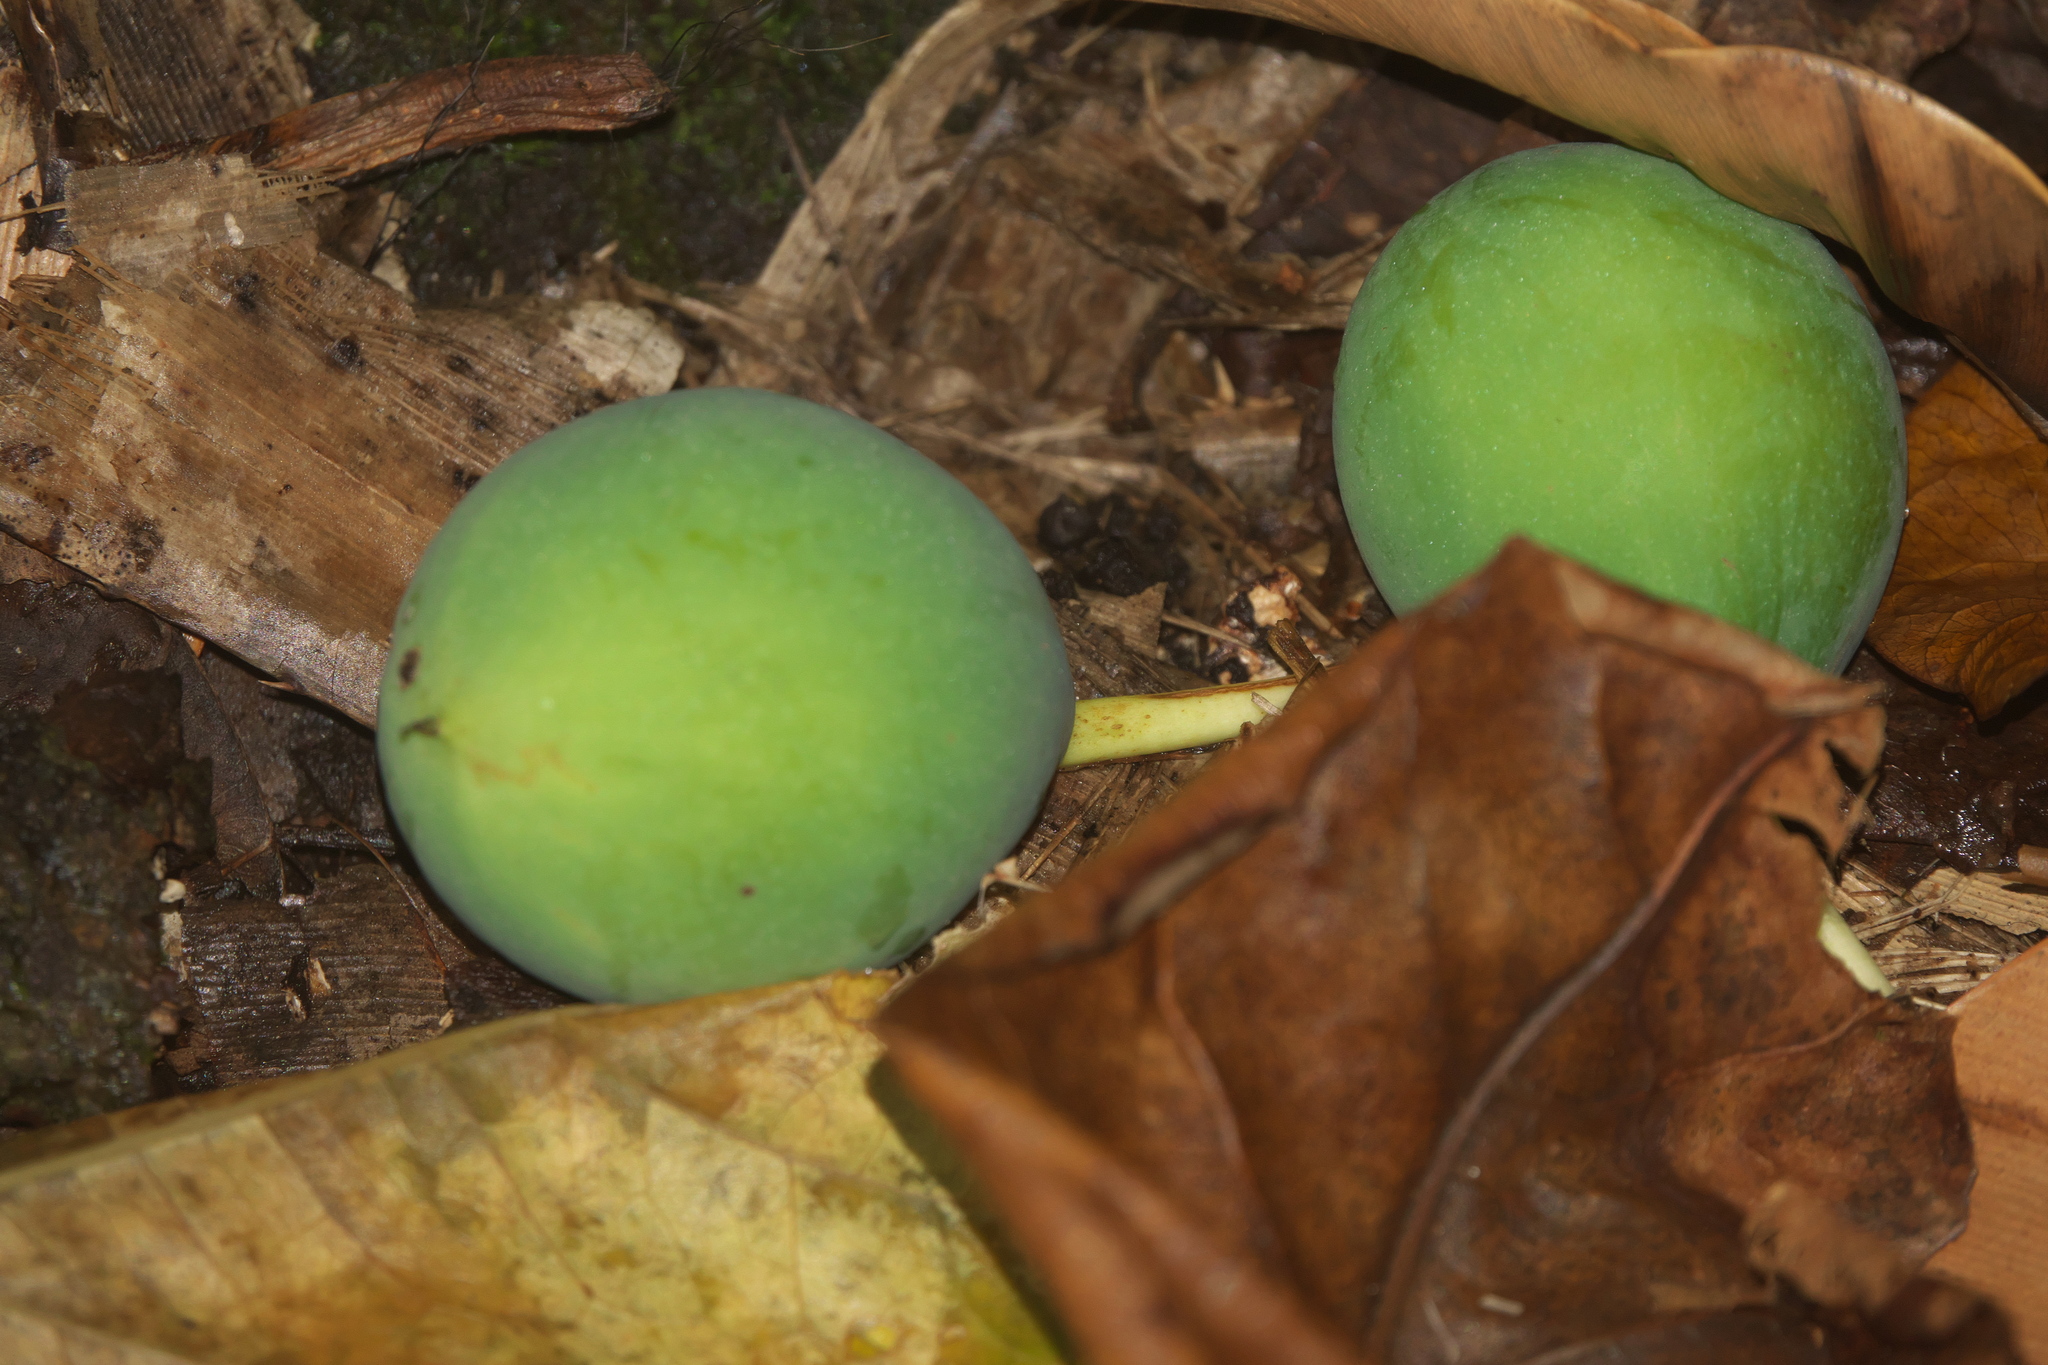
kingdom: Plantae
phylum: Tracheophyta
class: Magnoliopsida
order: Malpighiales
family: Calophyllaceae
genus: Calophyllum
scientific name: Calophyllum inophyllum
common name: Alexandrian laurel
